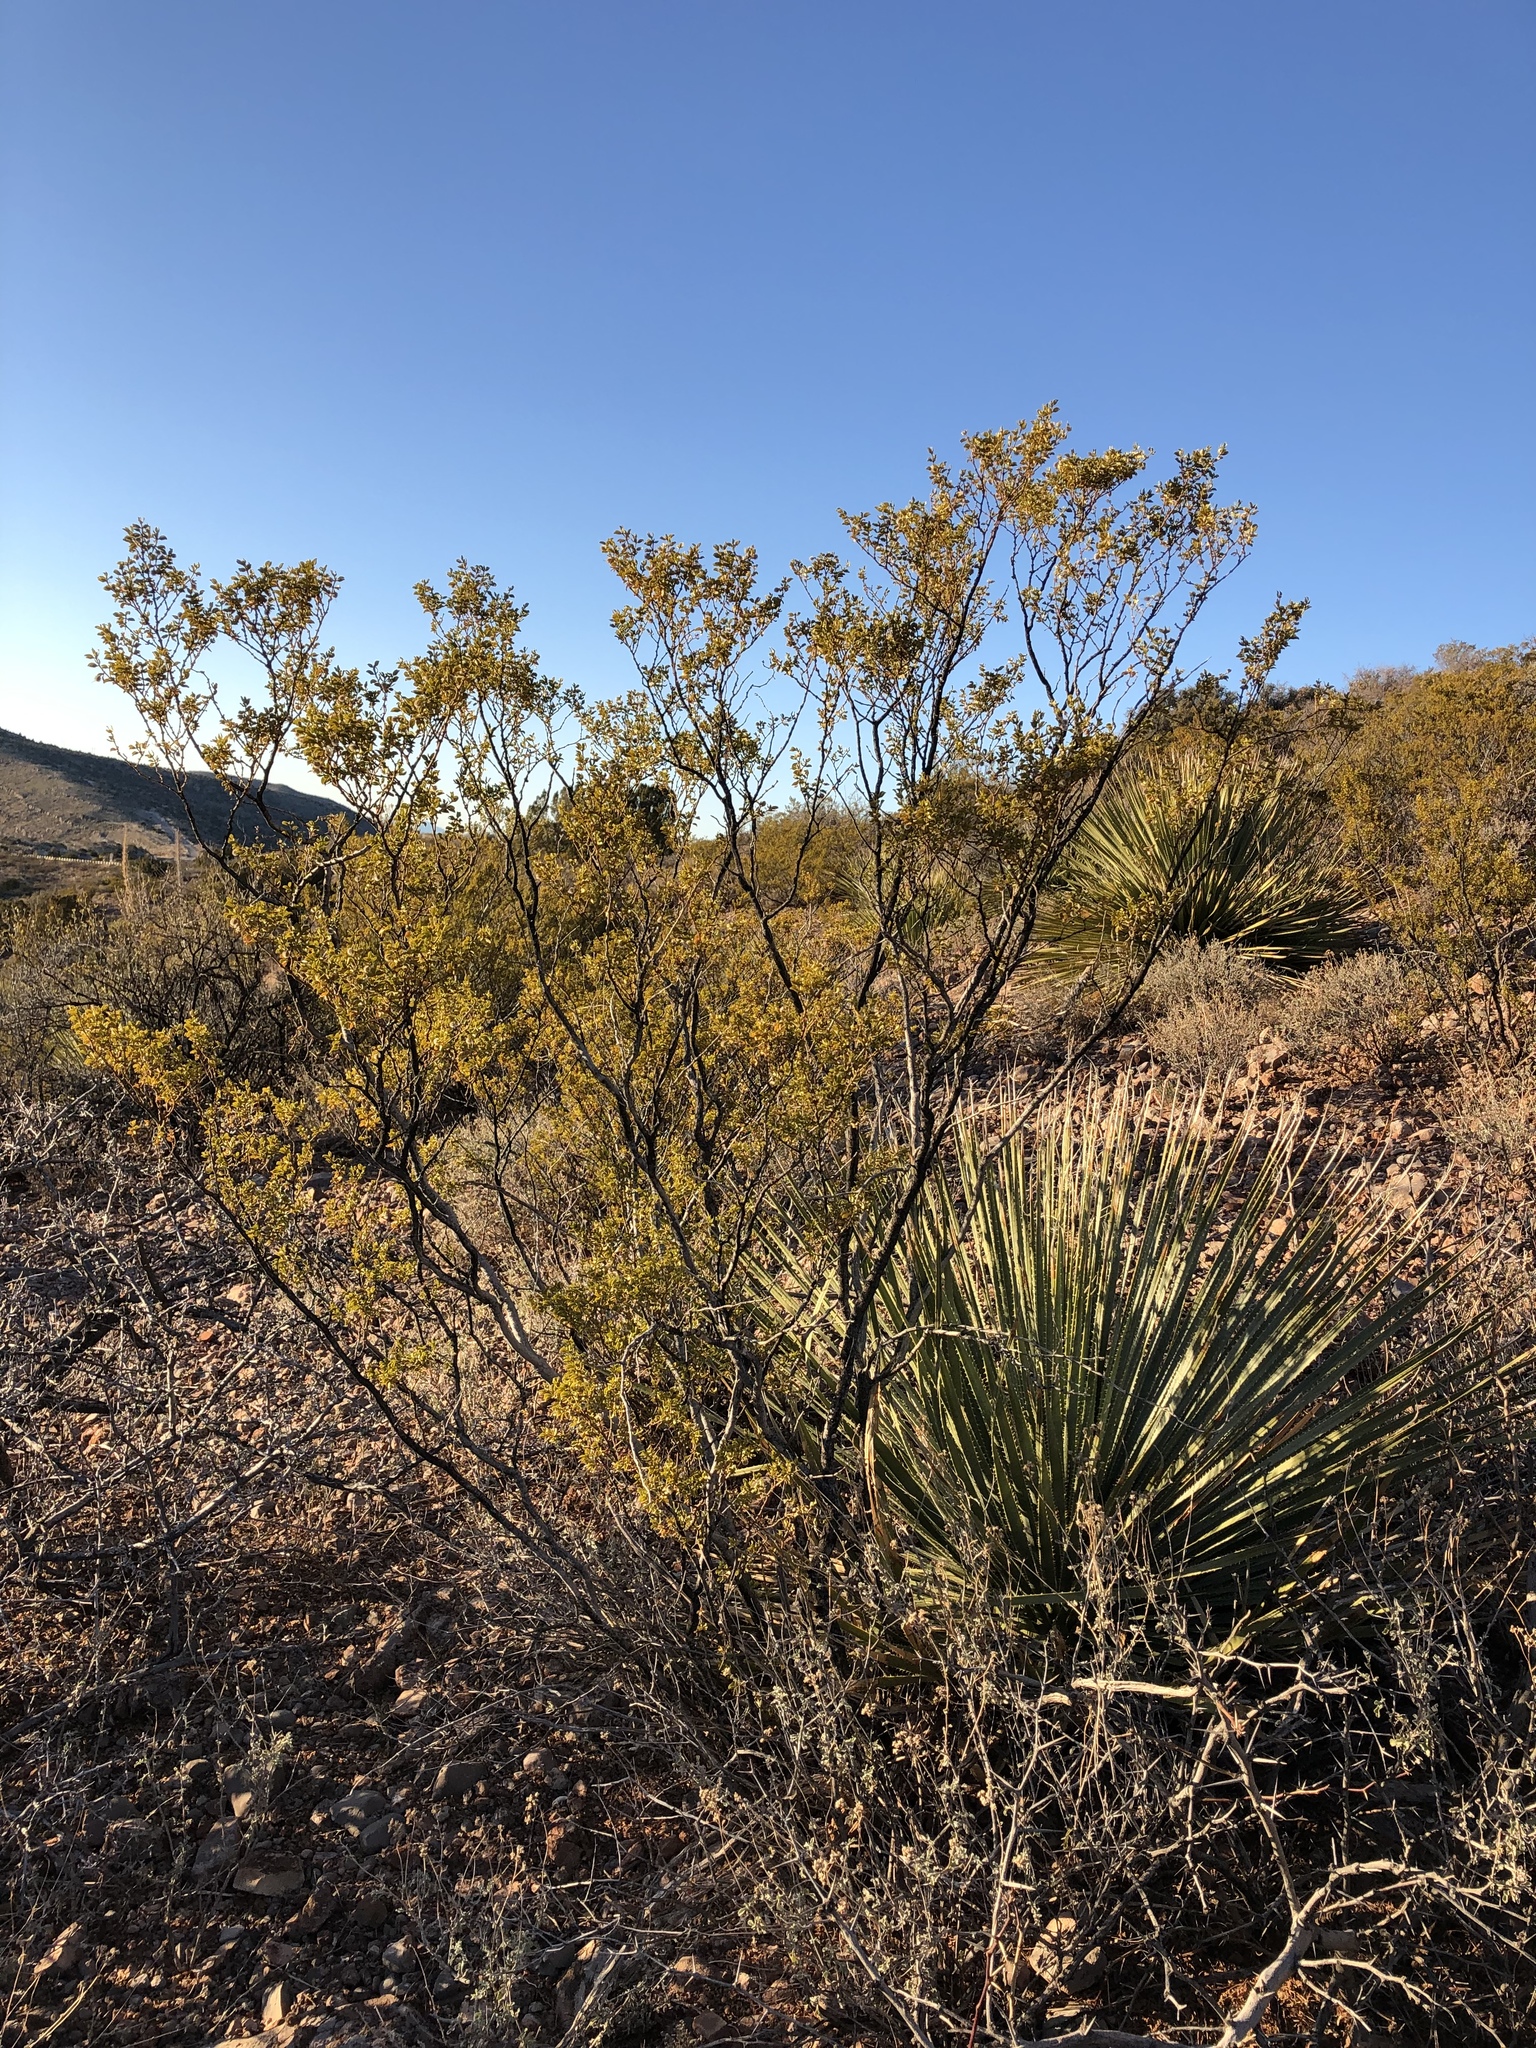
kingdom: Plantae
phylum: Tracheophyta
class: Magnoliopsida
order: Zygophyllales
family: Zygophyllaceae
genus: Larrea
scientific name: Larrea tridentata
